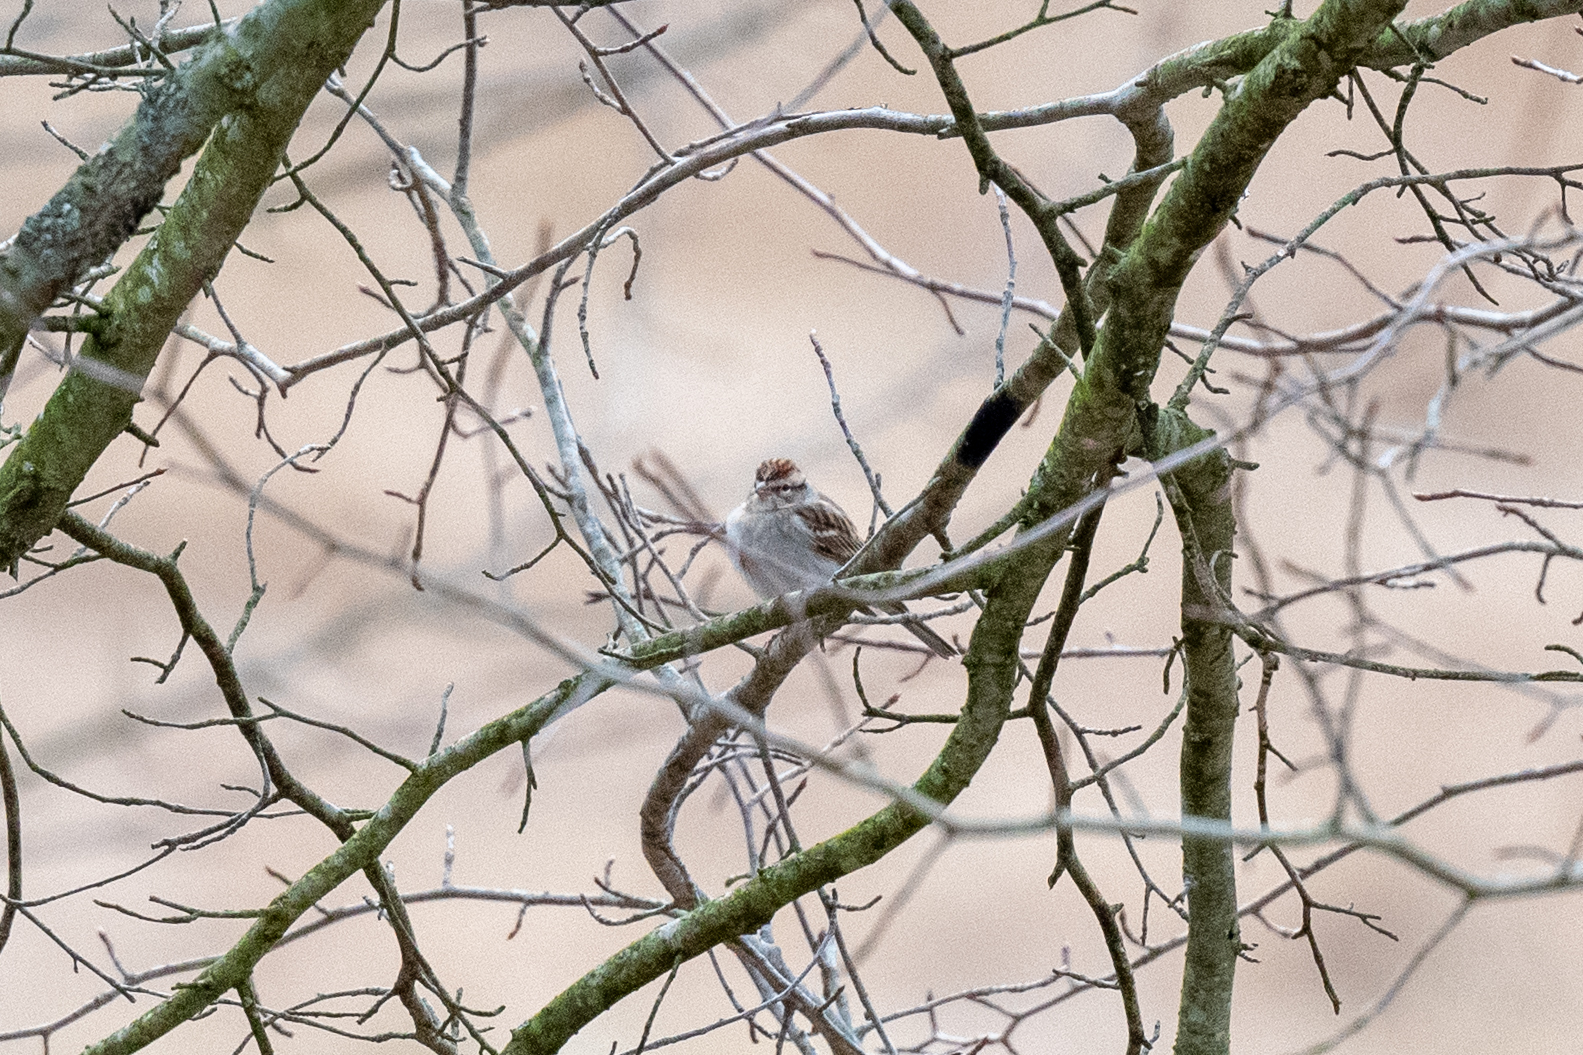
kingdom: Animalia
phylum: Chordata
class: Aves
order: Passeriformes
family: Passerellidae
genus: Spizella
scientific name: Spizella passerina
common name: Chipping sparrow
